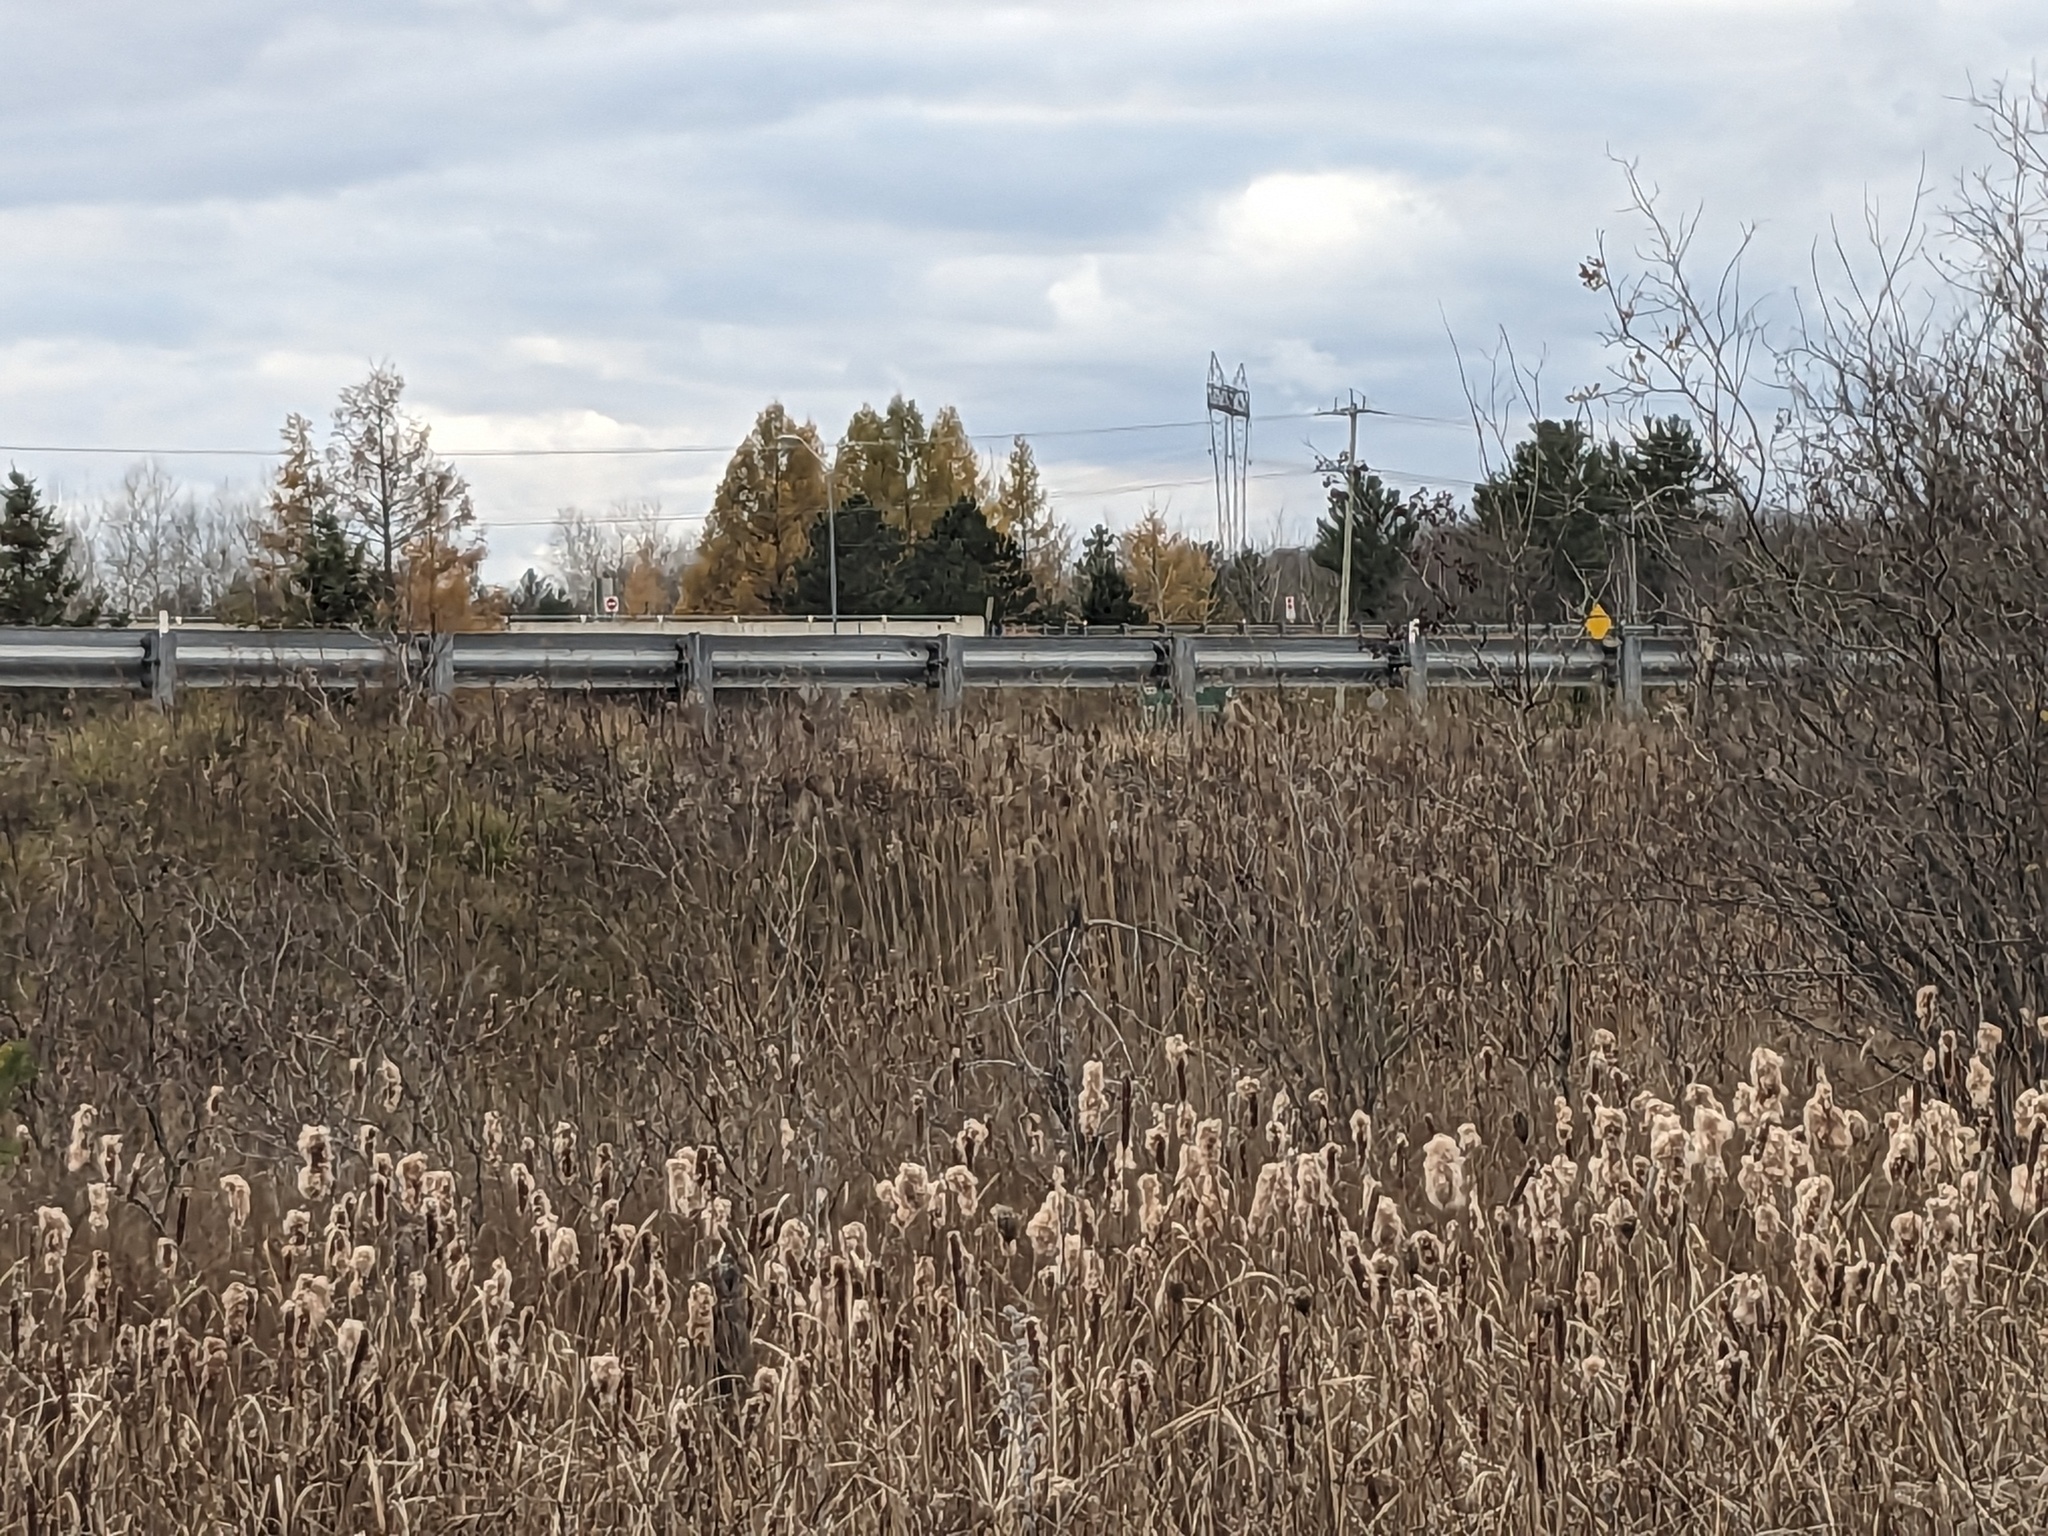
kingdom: Plantae
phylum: Tracheophyta
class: Liliopsida
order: Poales
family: Poaceae
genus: Phragmites
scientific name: Phragmites australis
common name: Common reed
